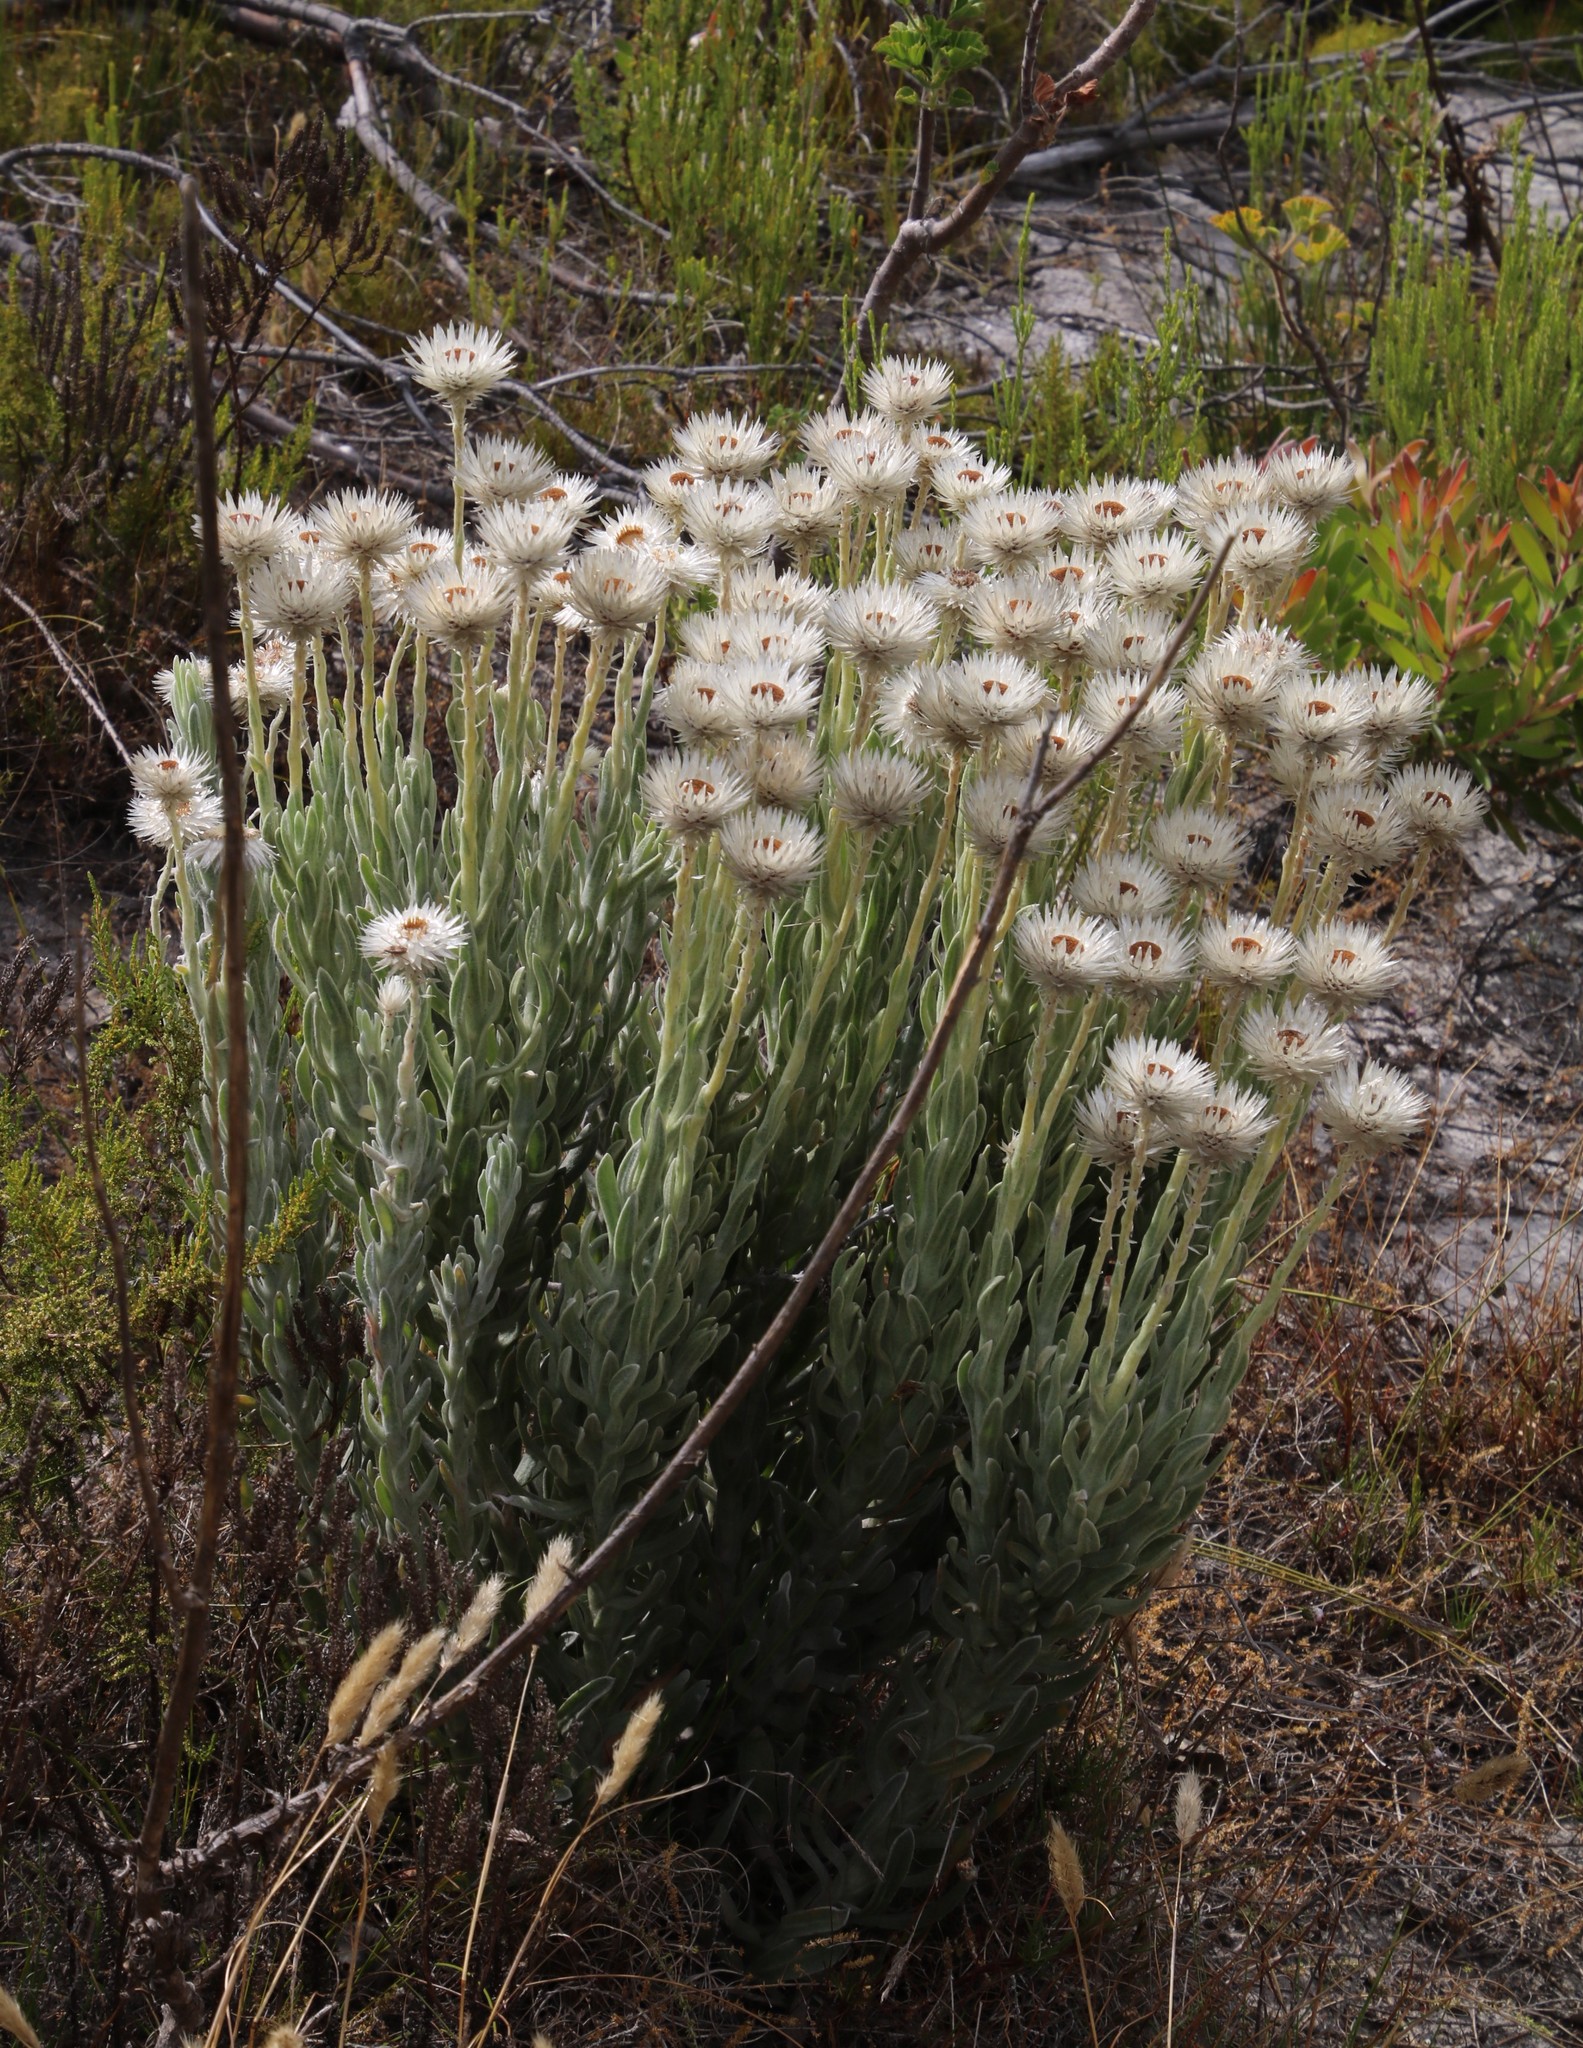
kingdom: Plantae
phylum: Tracheophyta
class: Magnoliopsida
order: Asterales
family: Asteraceae
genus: Syncarpha
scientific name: Syncarpha vestita
